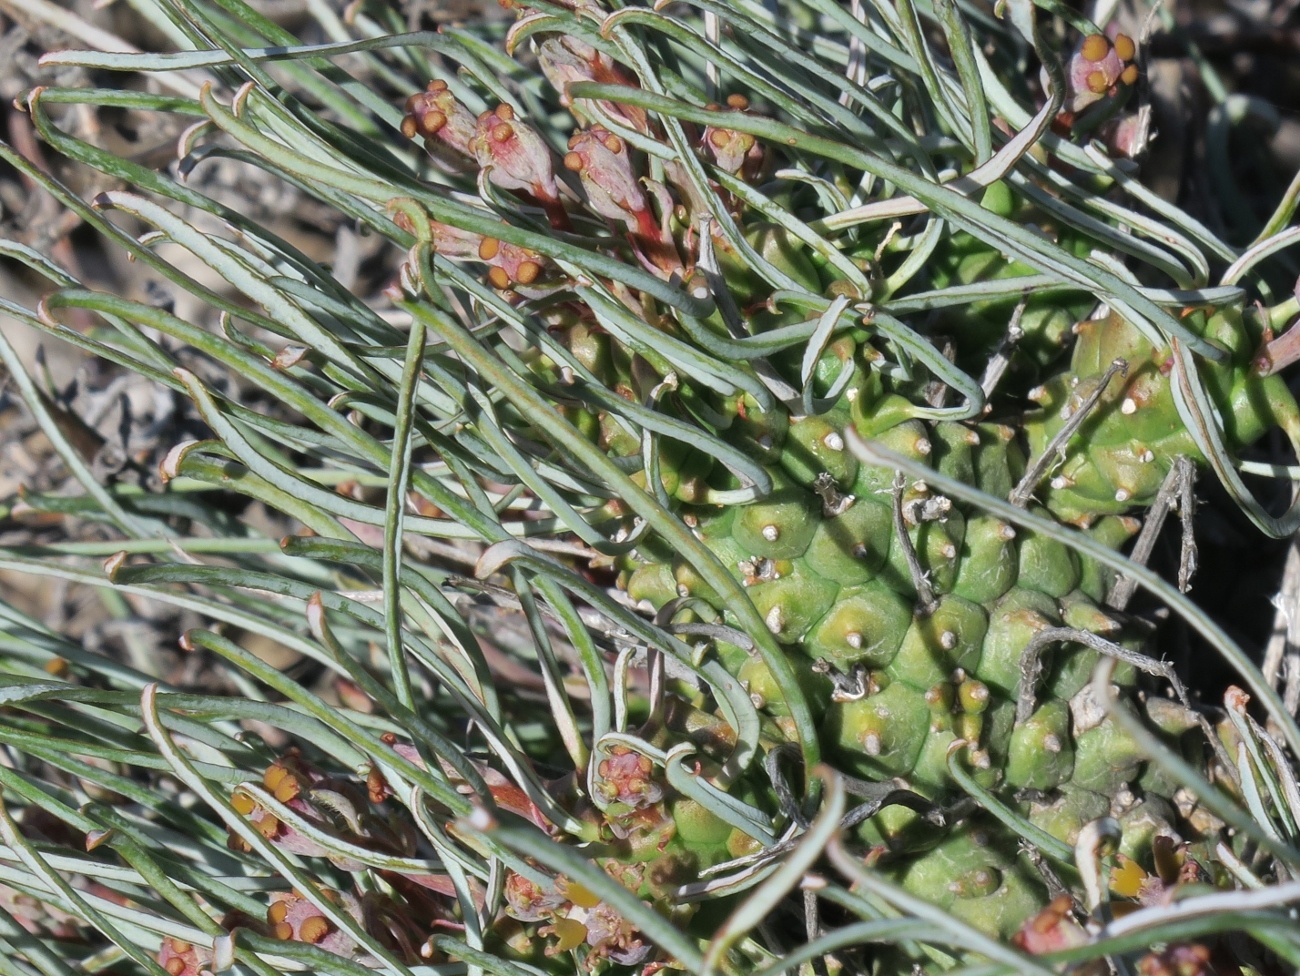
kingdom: Plantae
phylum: Tracheophyta
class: Magnoliopsida
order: Malpighiales
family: Euphorbiaceae
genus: Euphorbia
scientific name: Euphorbia filiflora
